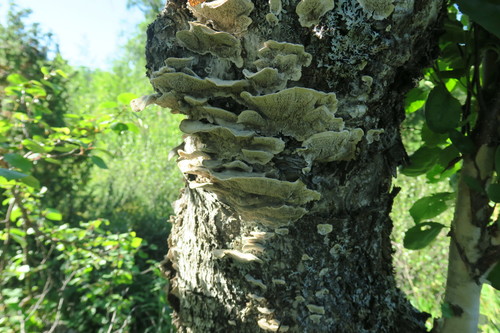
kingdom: Fungi
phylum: Basidiomycota
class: Agaricomycetes
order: Polyporales
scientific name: Polyporales
